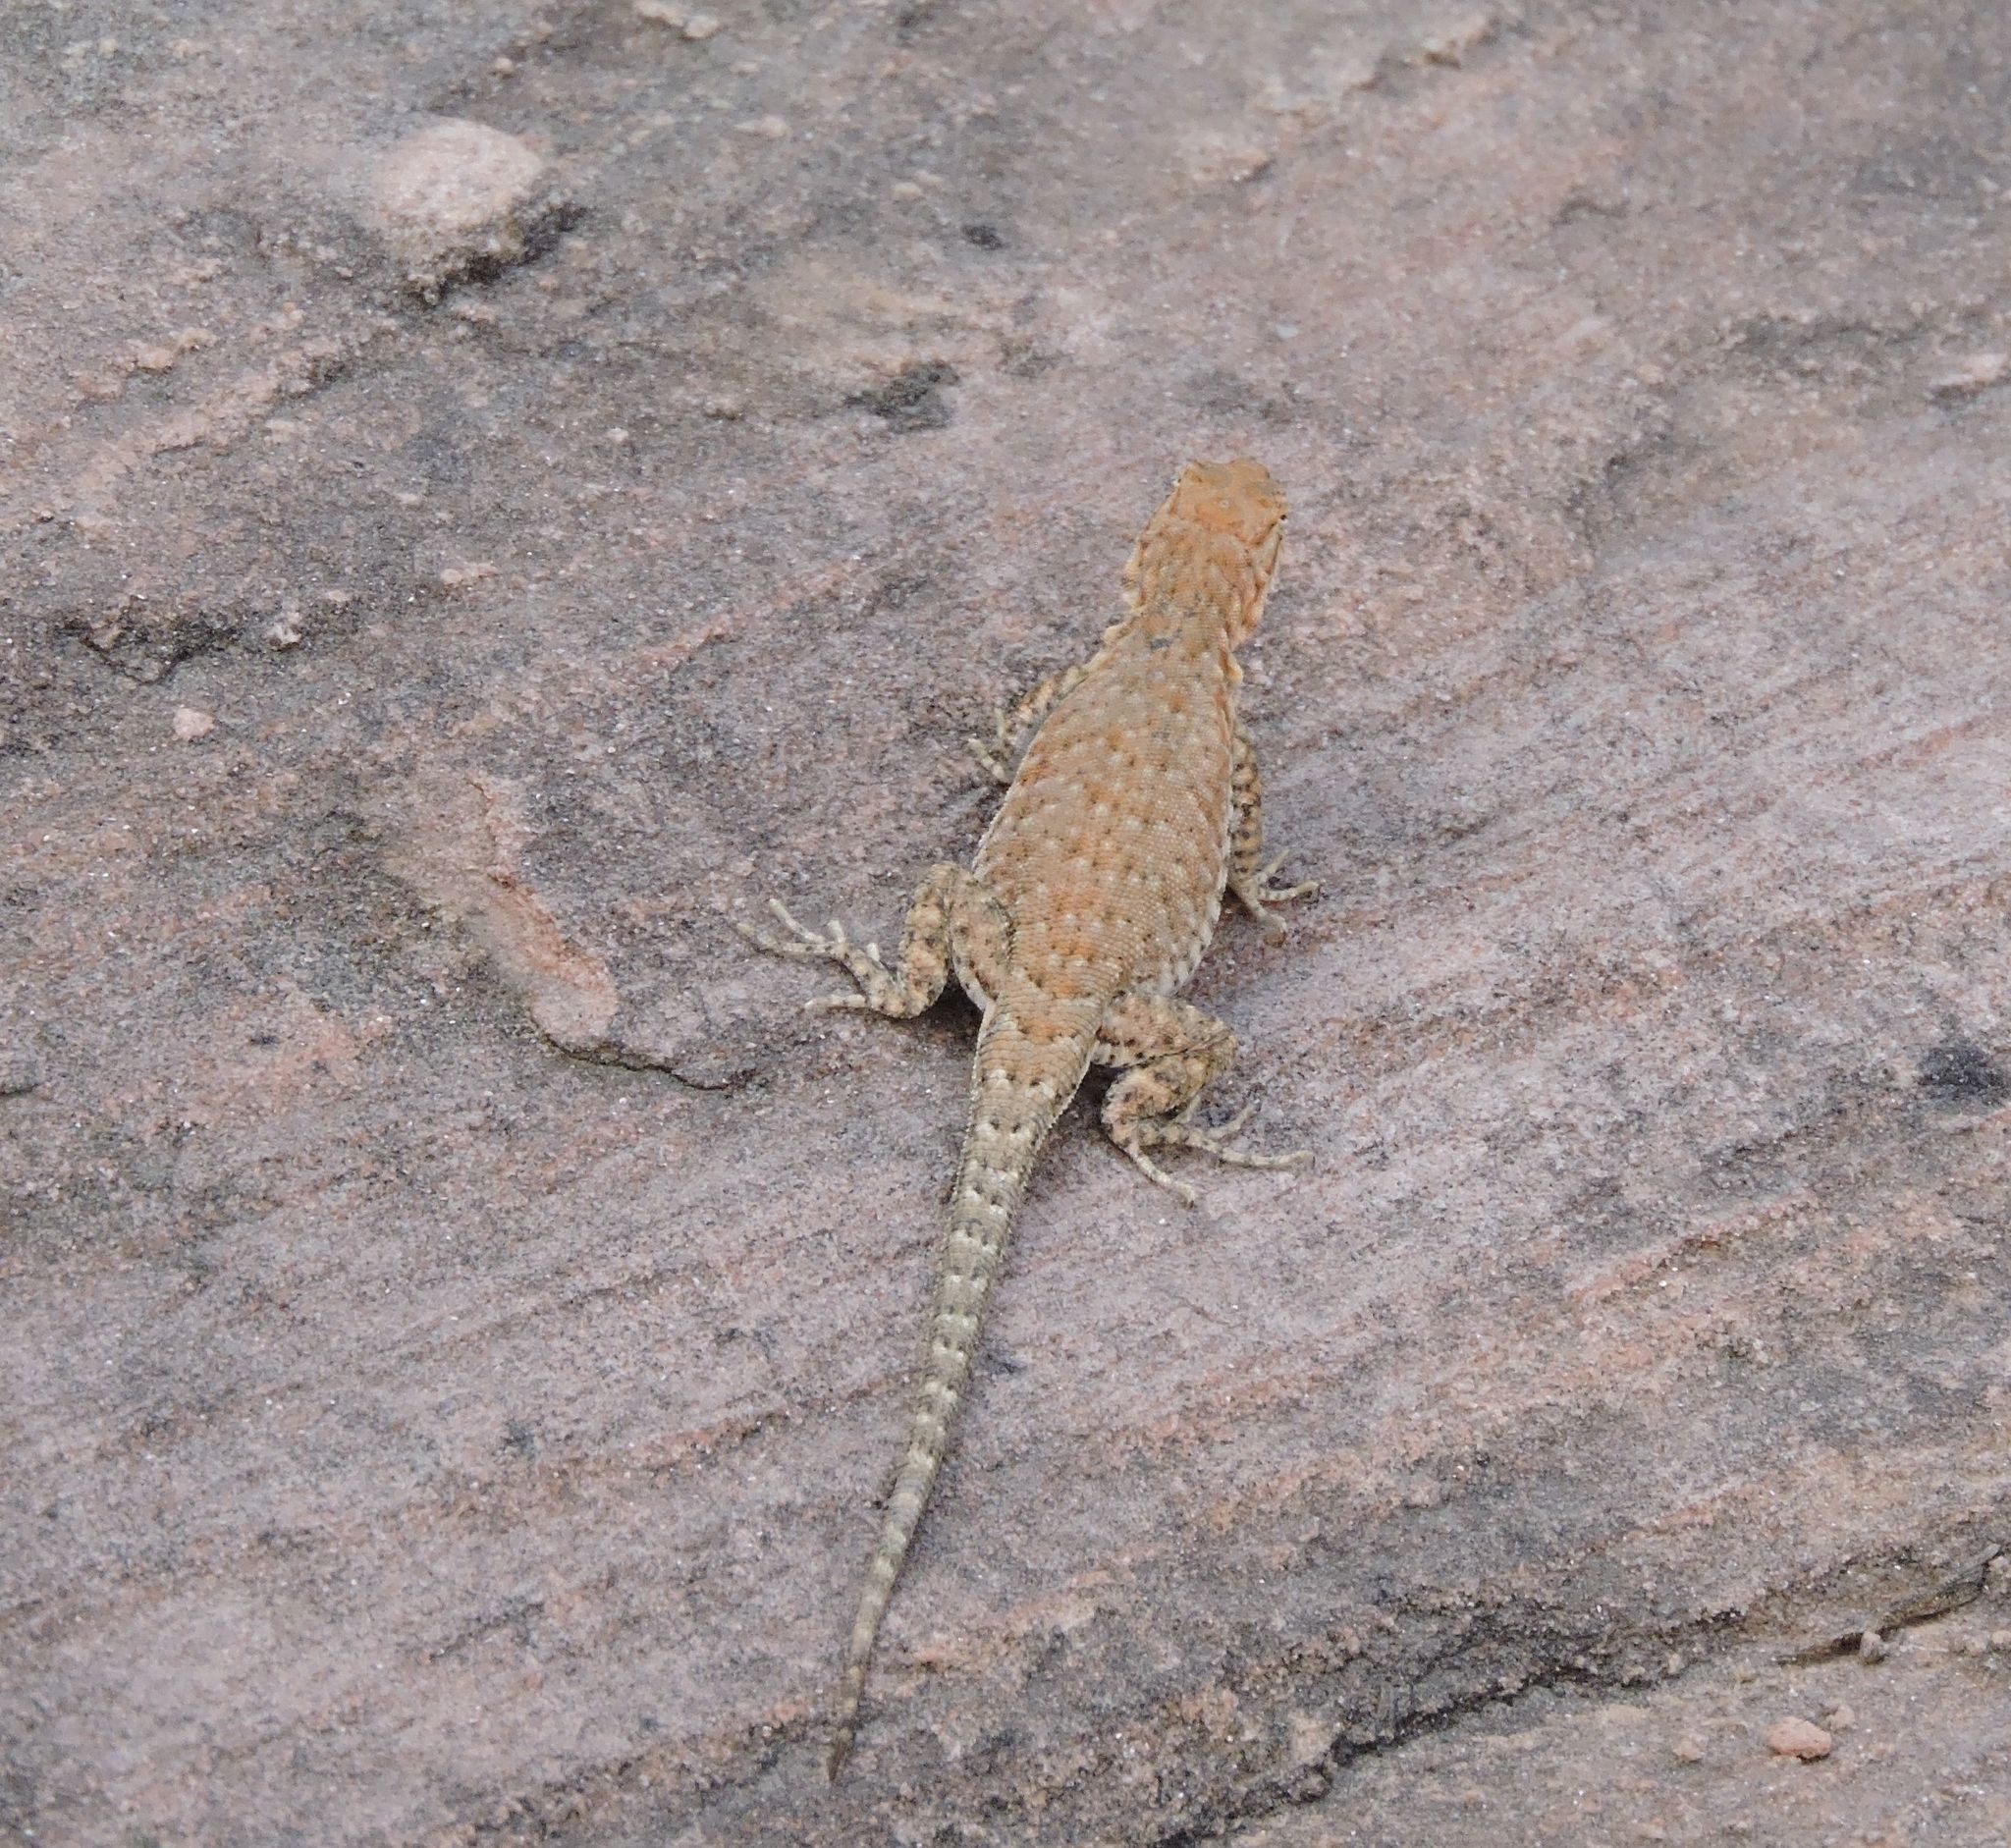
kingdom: Animalia
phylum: Chordata
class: Squamata
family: Phrynosomatidae
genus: Uta
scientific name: Uta stansburiana
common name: Side-blotched lizard
